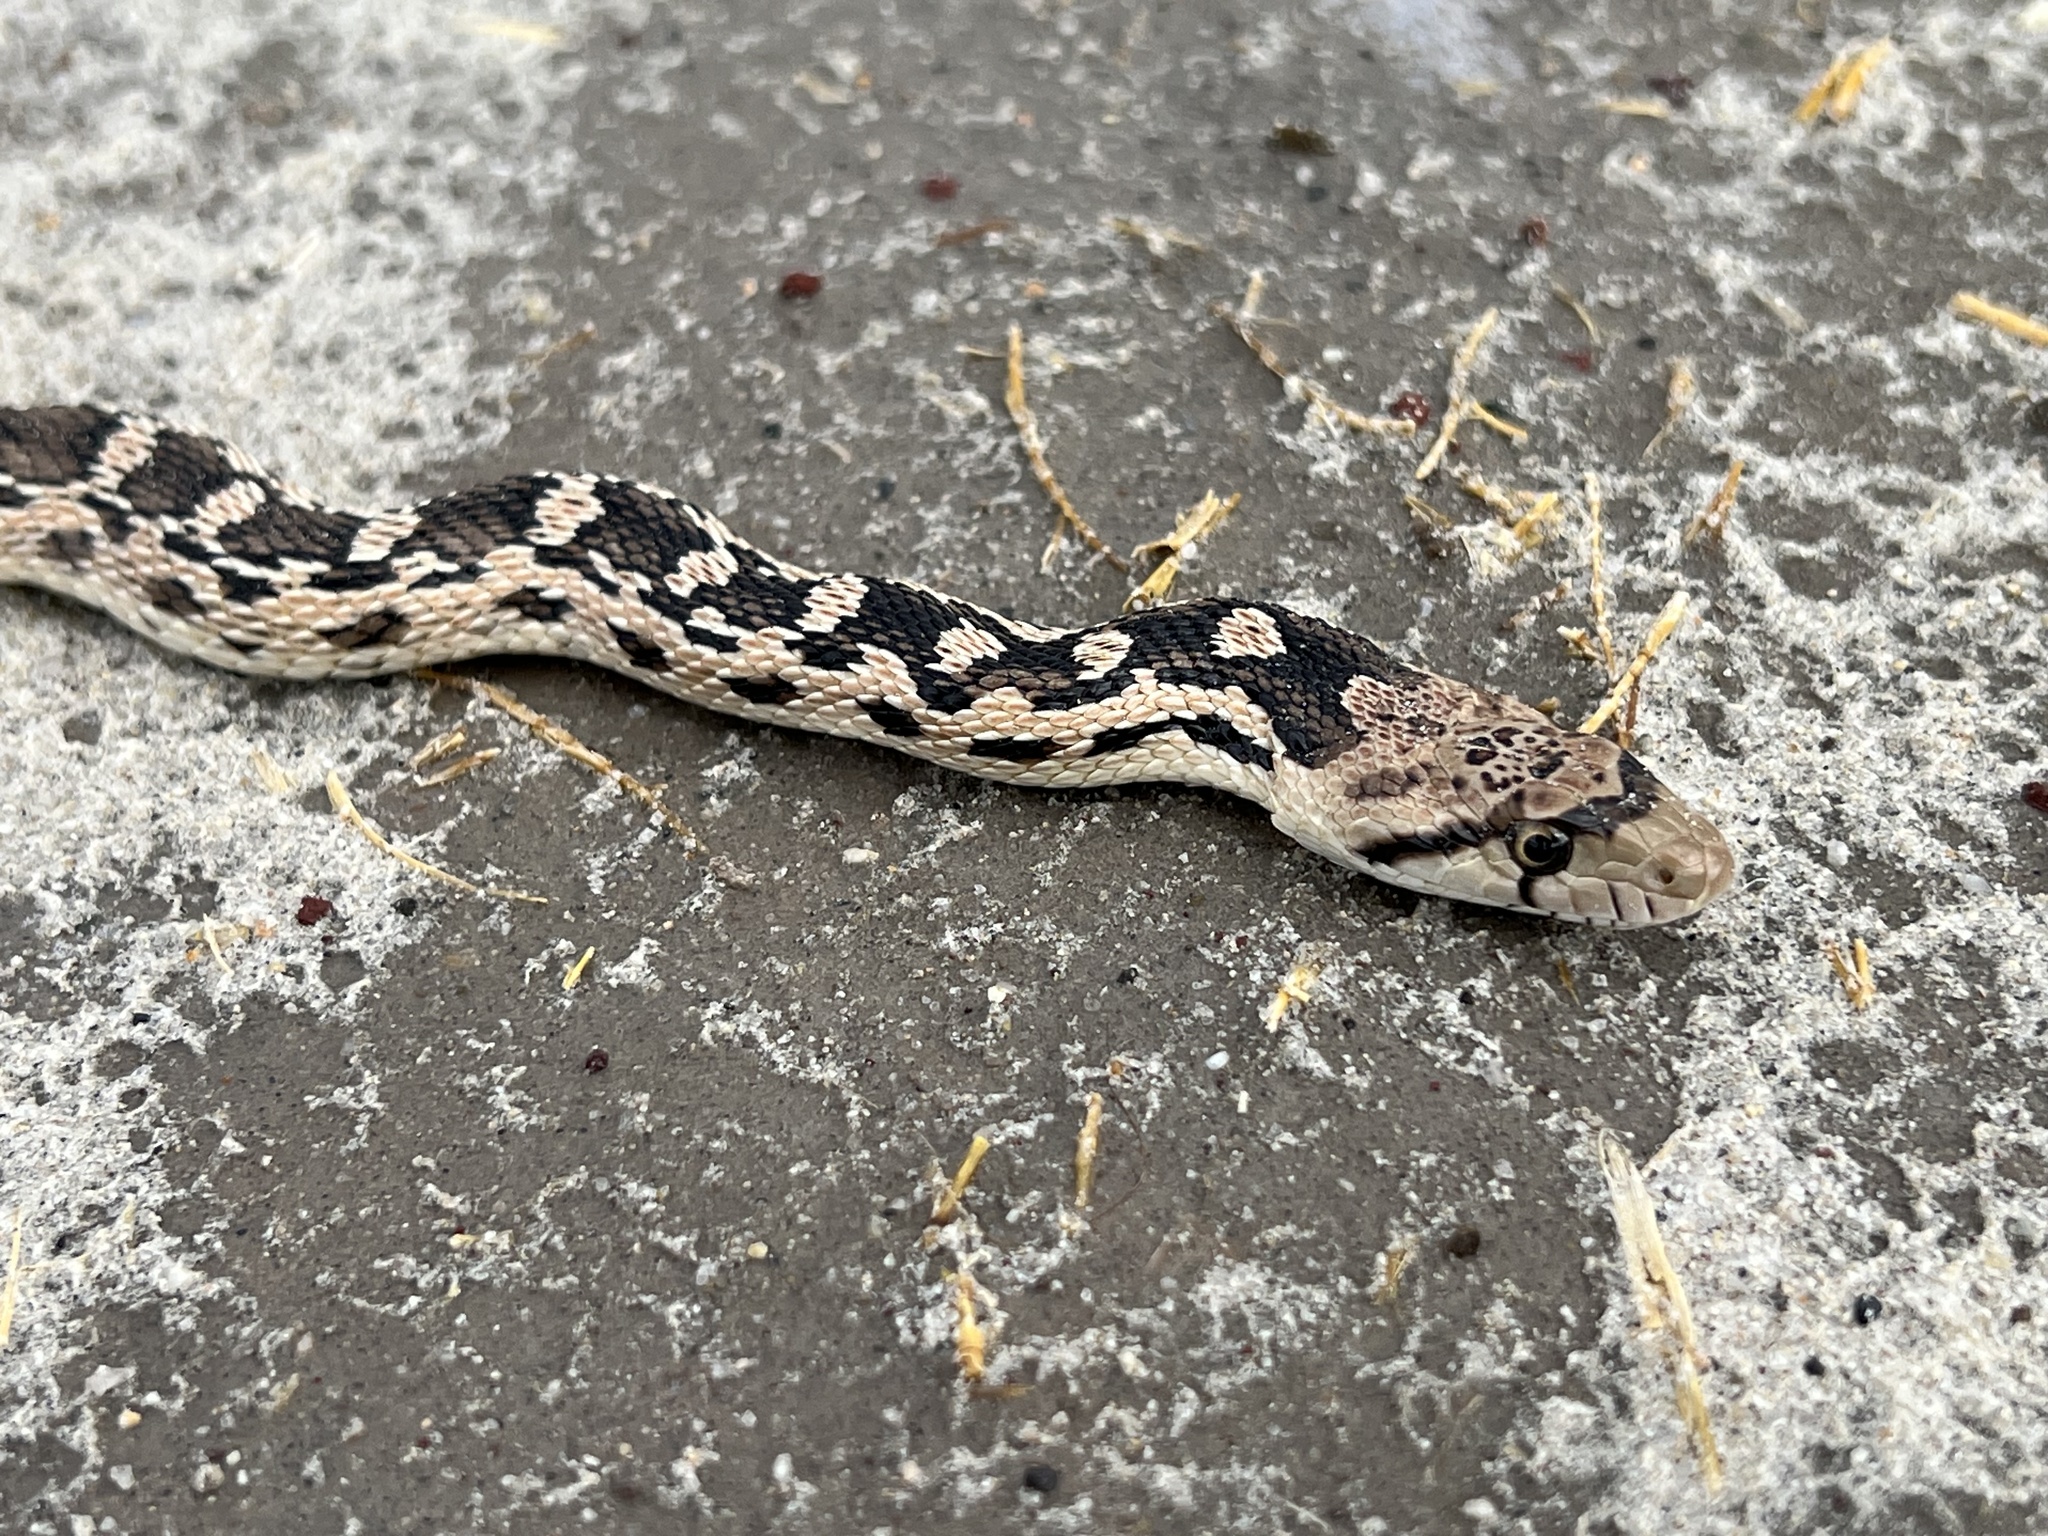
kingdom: Animalia
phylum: Chordata
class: Squamata
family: Colubridae
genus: Pituophis
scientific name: Pituophis catenifer
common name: Gopher snake
